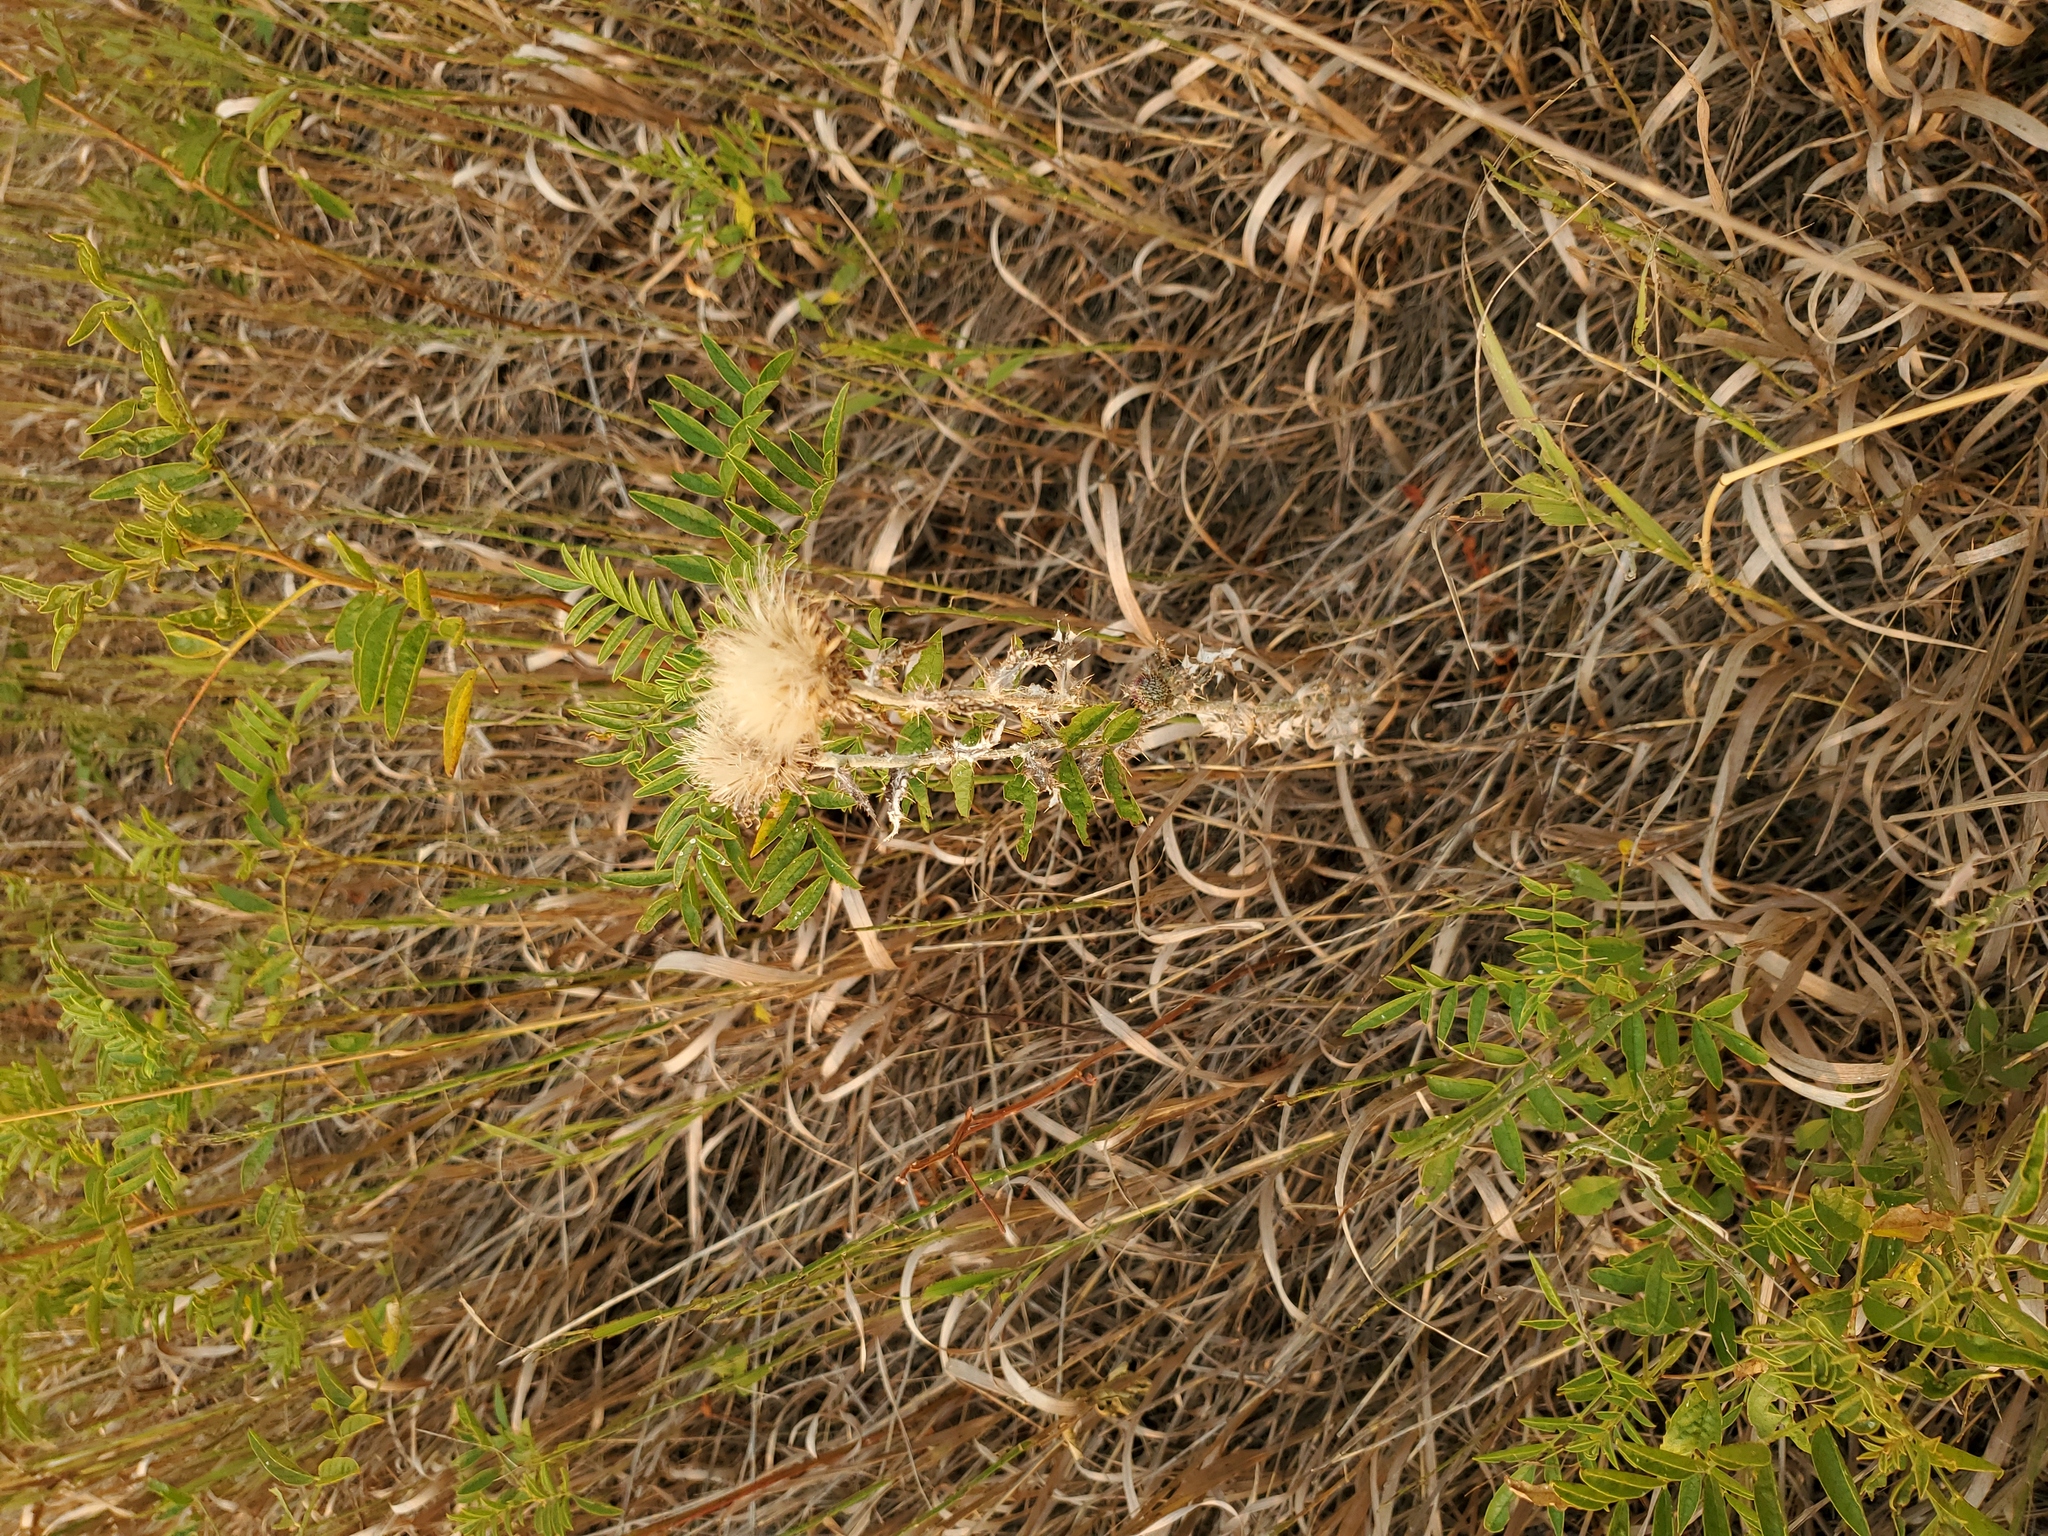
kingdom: Plantae
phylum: Tracheophyta
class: Magnoliopsida
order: Asterales
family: Asteraceae
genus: Cirsium
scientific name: Cirsium undulatum
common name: Pasture thistle
